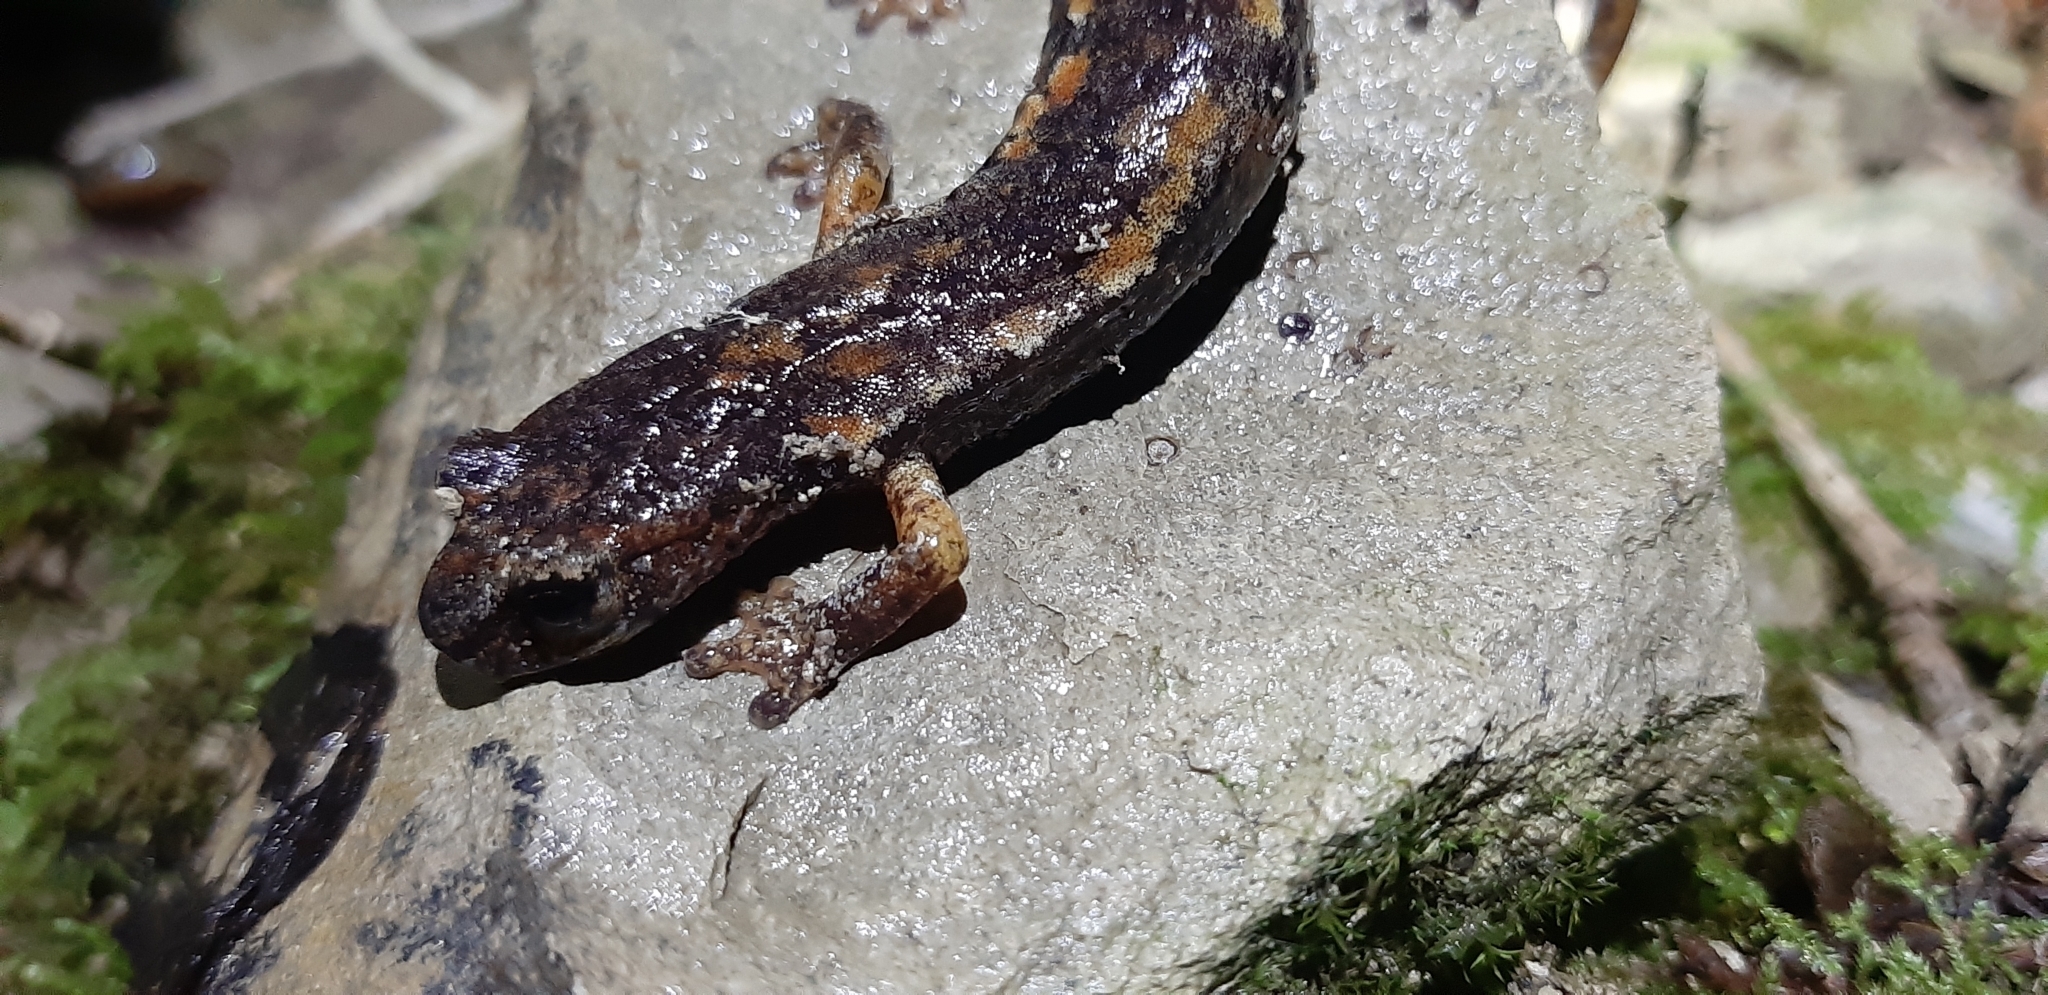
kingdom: Animalia
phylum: Chordata
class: Amphibia
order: Caudata
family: Plethodontidae
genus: Speleomantes
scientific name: Speleomantes italicus
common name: Italian cave salamander
